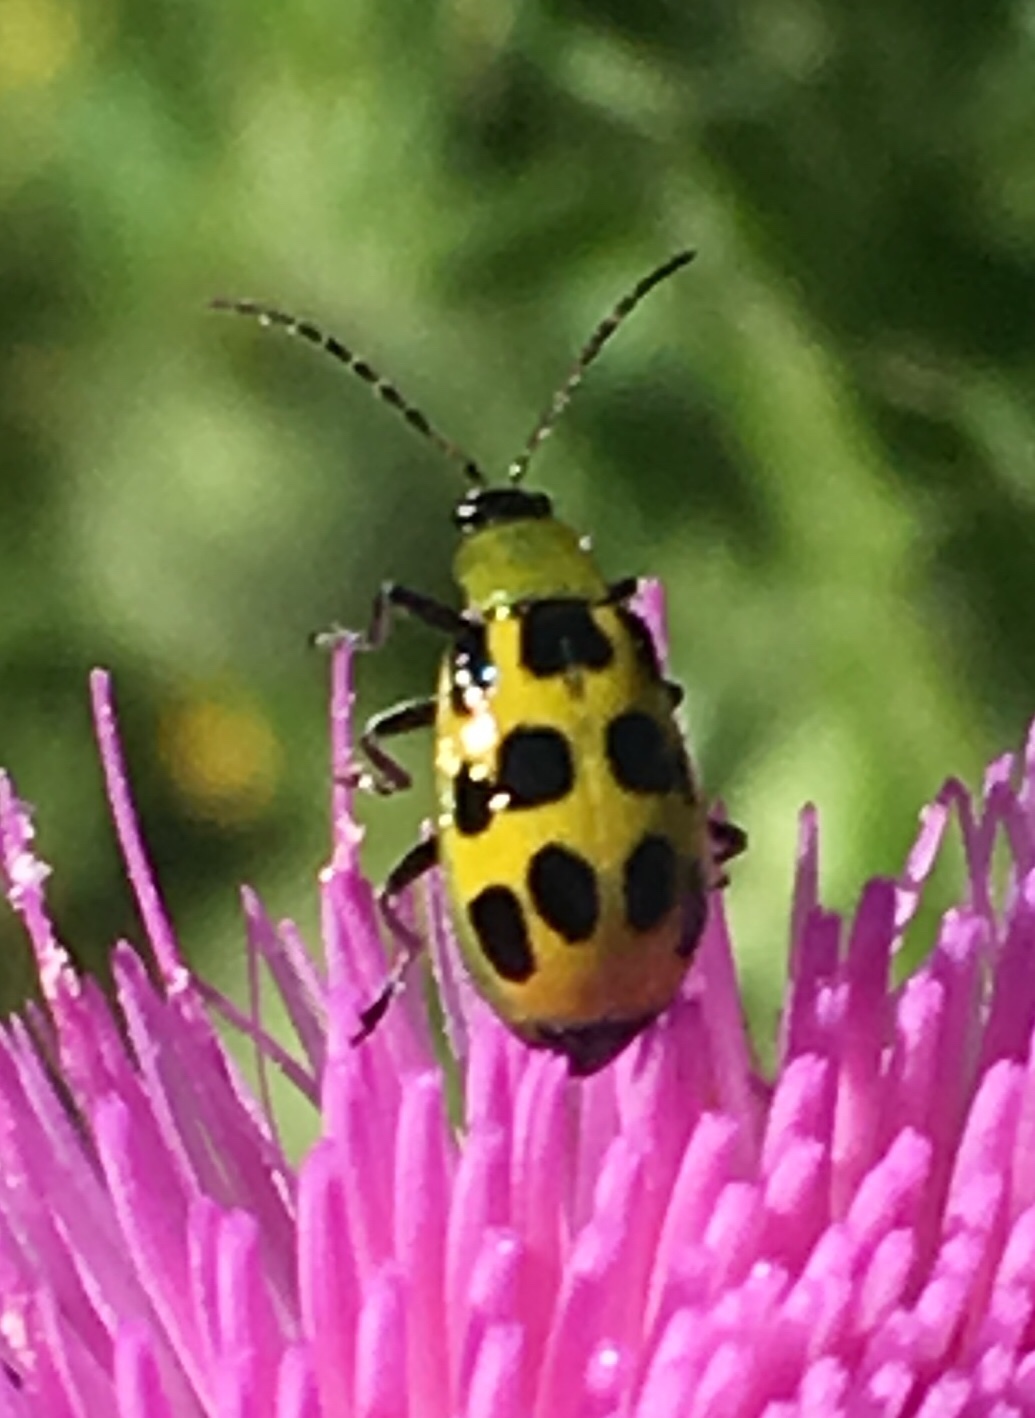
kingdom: Animalia
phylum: Arthropoda
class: Insecta
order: Coleoptera
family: Chrysomelidae
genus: Diabrotica
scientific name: Diabrotica undecimpunctata
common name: Spotted cucumber beetle
